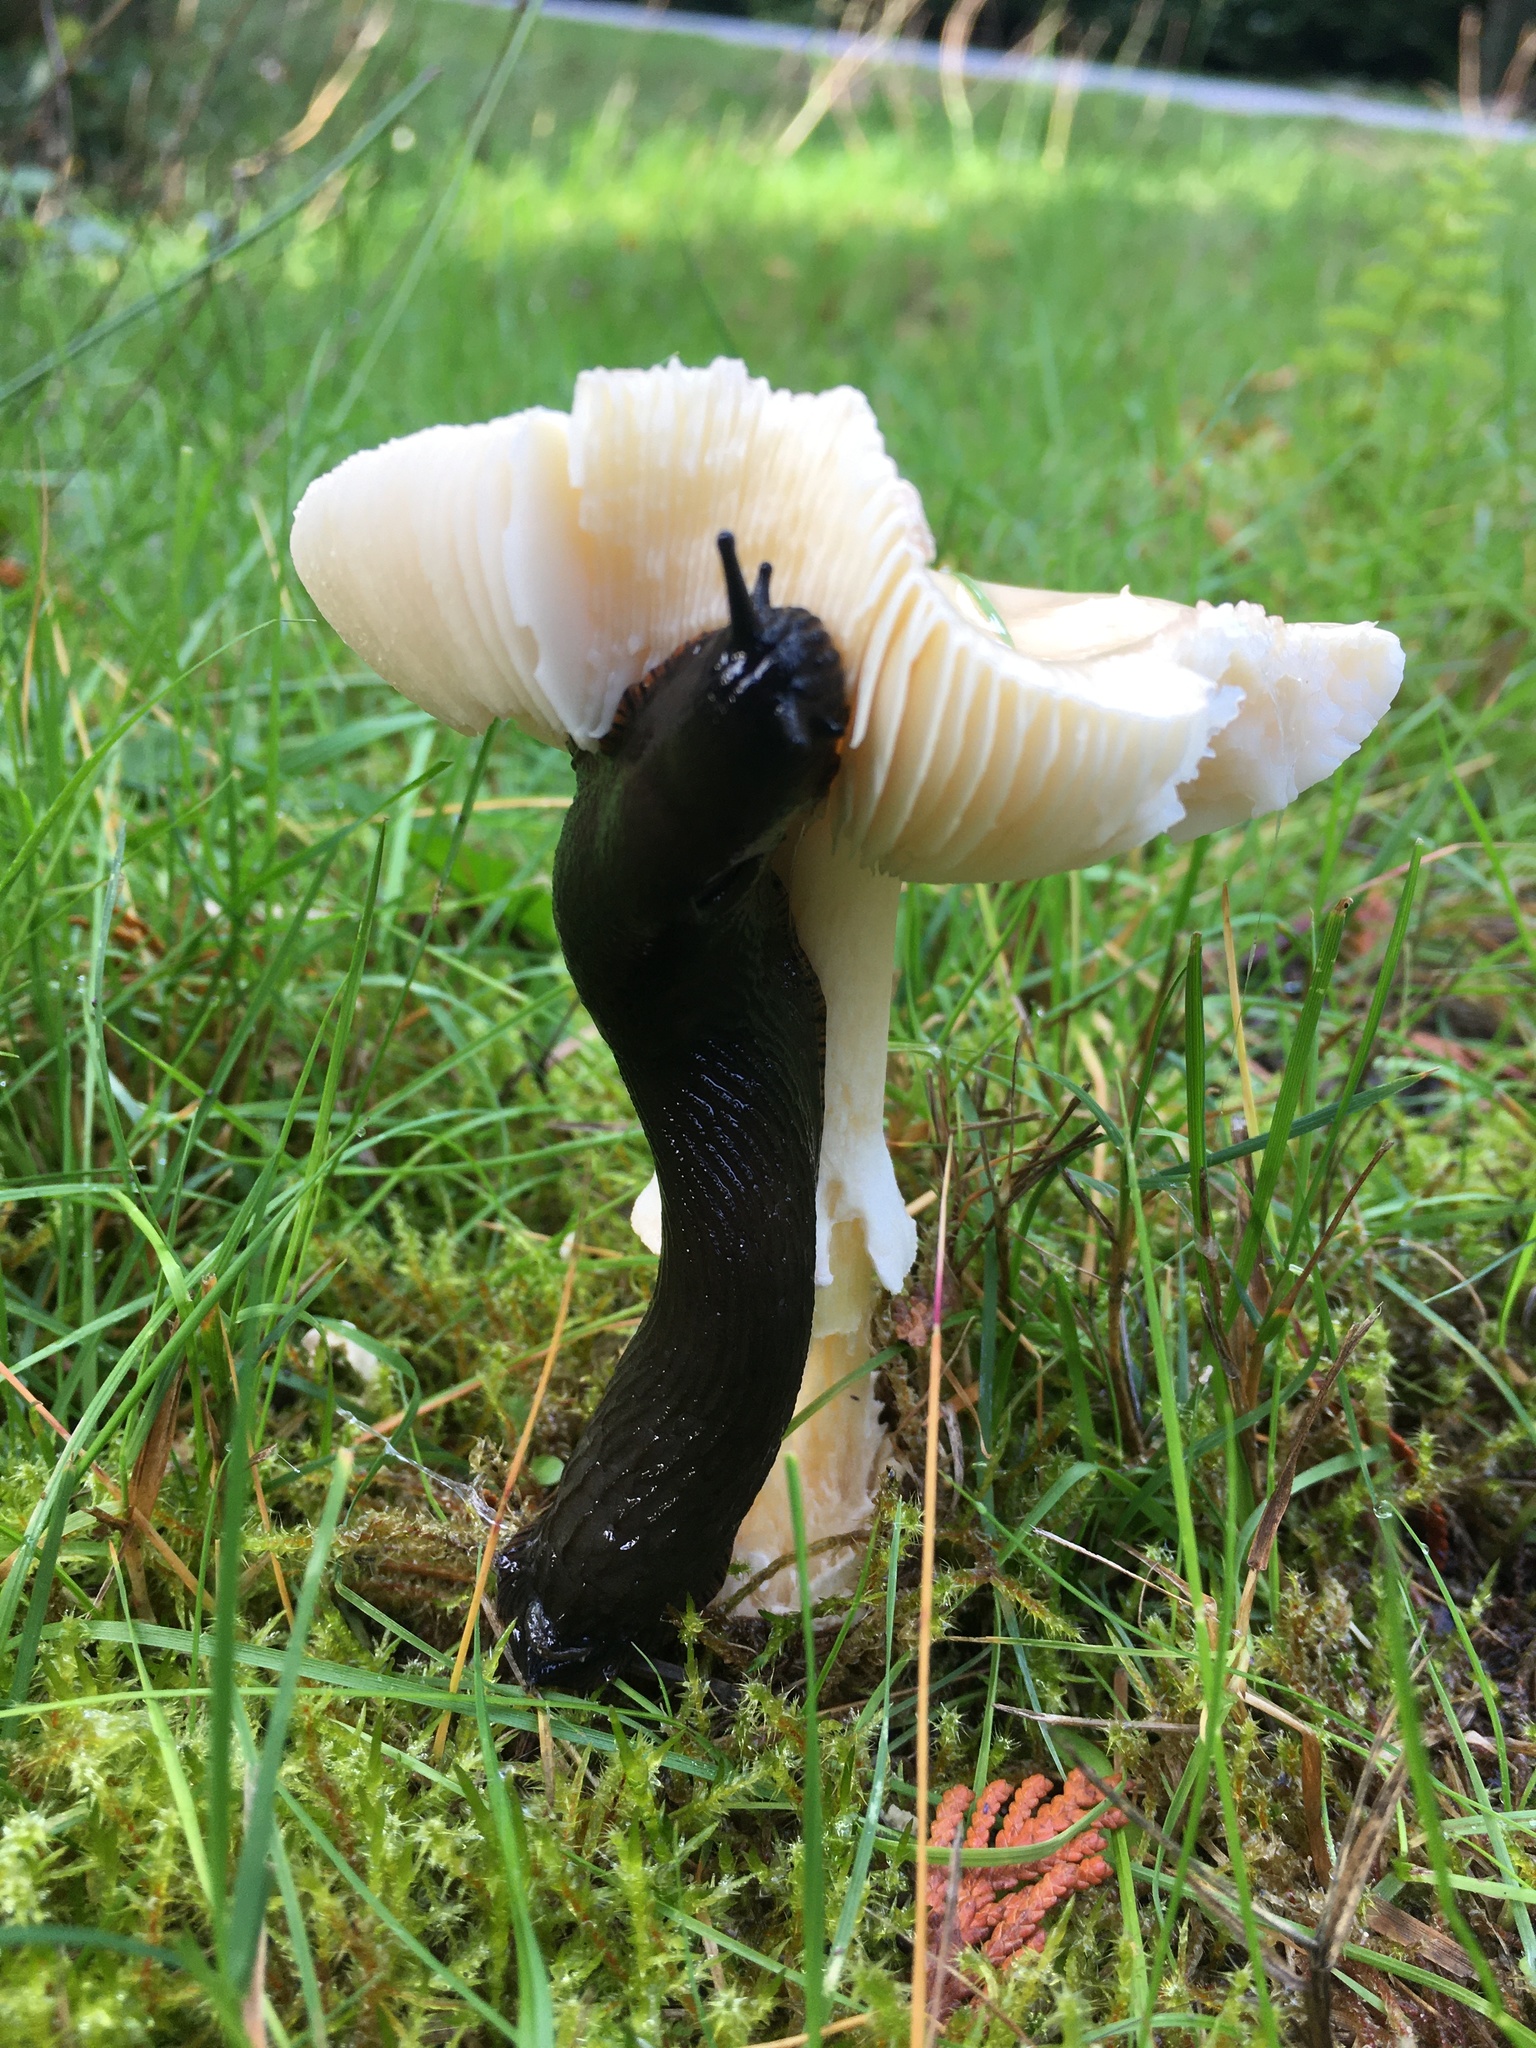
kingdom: Animalia
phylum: Mollusca
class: Gastropoda
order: Stylommatophora
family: Arionidae
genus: Arion
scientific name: Arion
